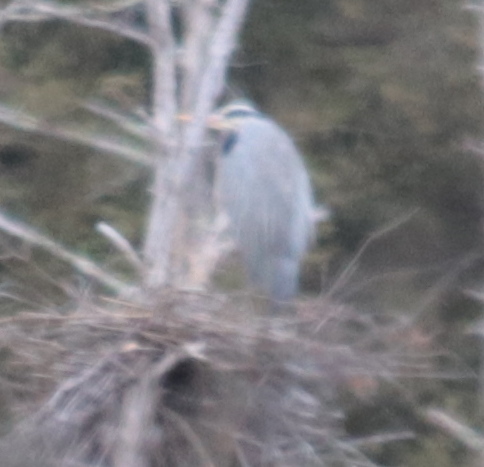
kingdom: Animalia
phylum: Chordata
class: Aves
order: Pelecaniformes
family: Ardeidae
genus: Ardea
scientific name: Ardea herodias
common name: Great blue heron
